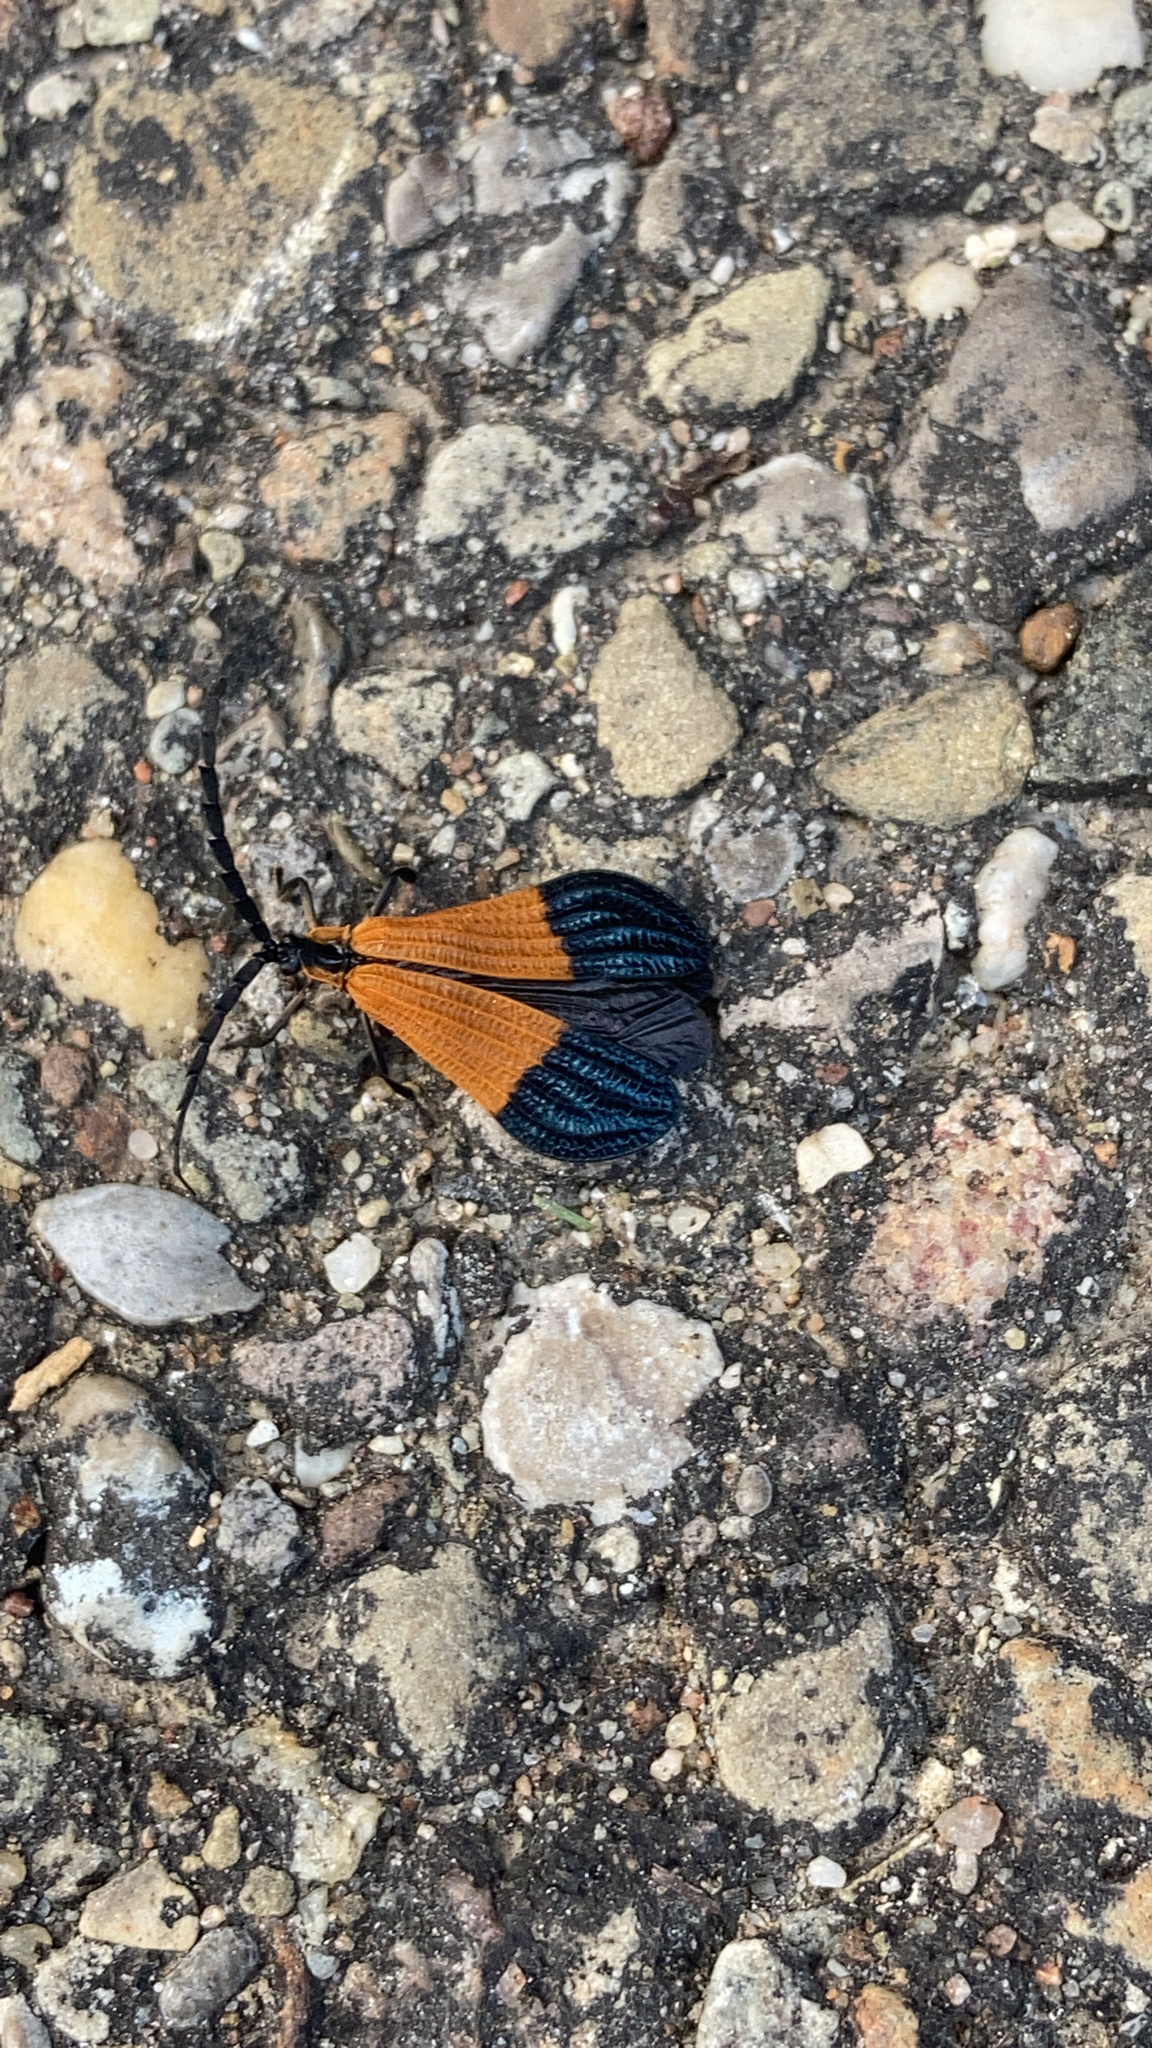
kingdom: Animalia
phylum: Arthropoda
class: Insecta
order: Coleoptera
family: Lycidae
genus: Calopteron
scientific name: Calopteron terminale
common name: End band net-winged beetle
